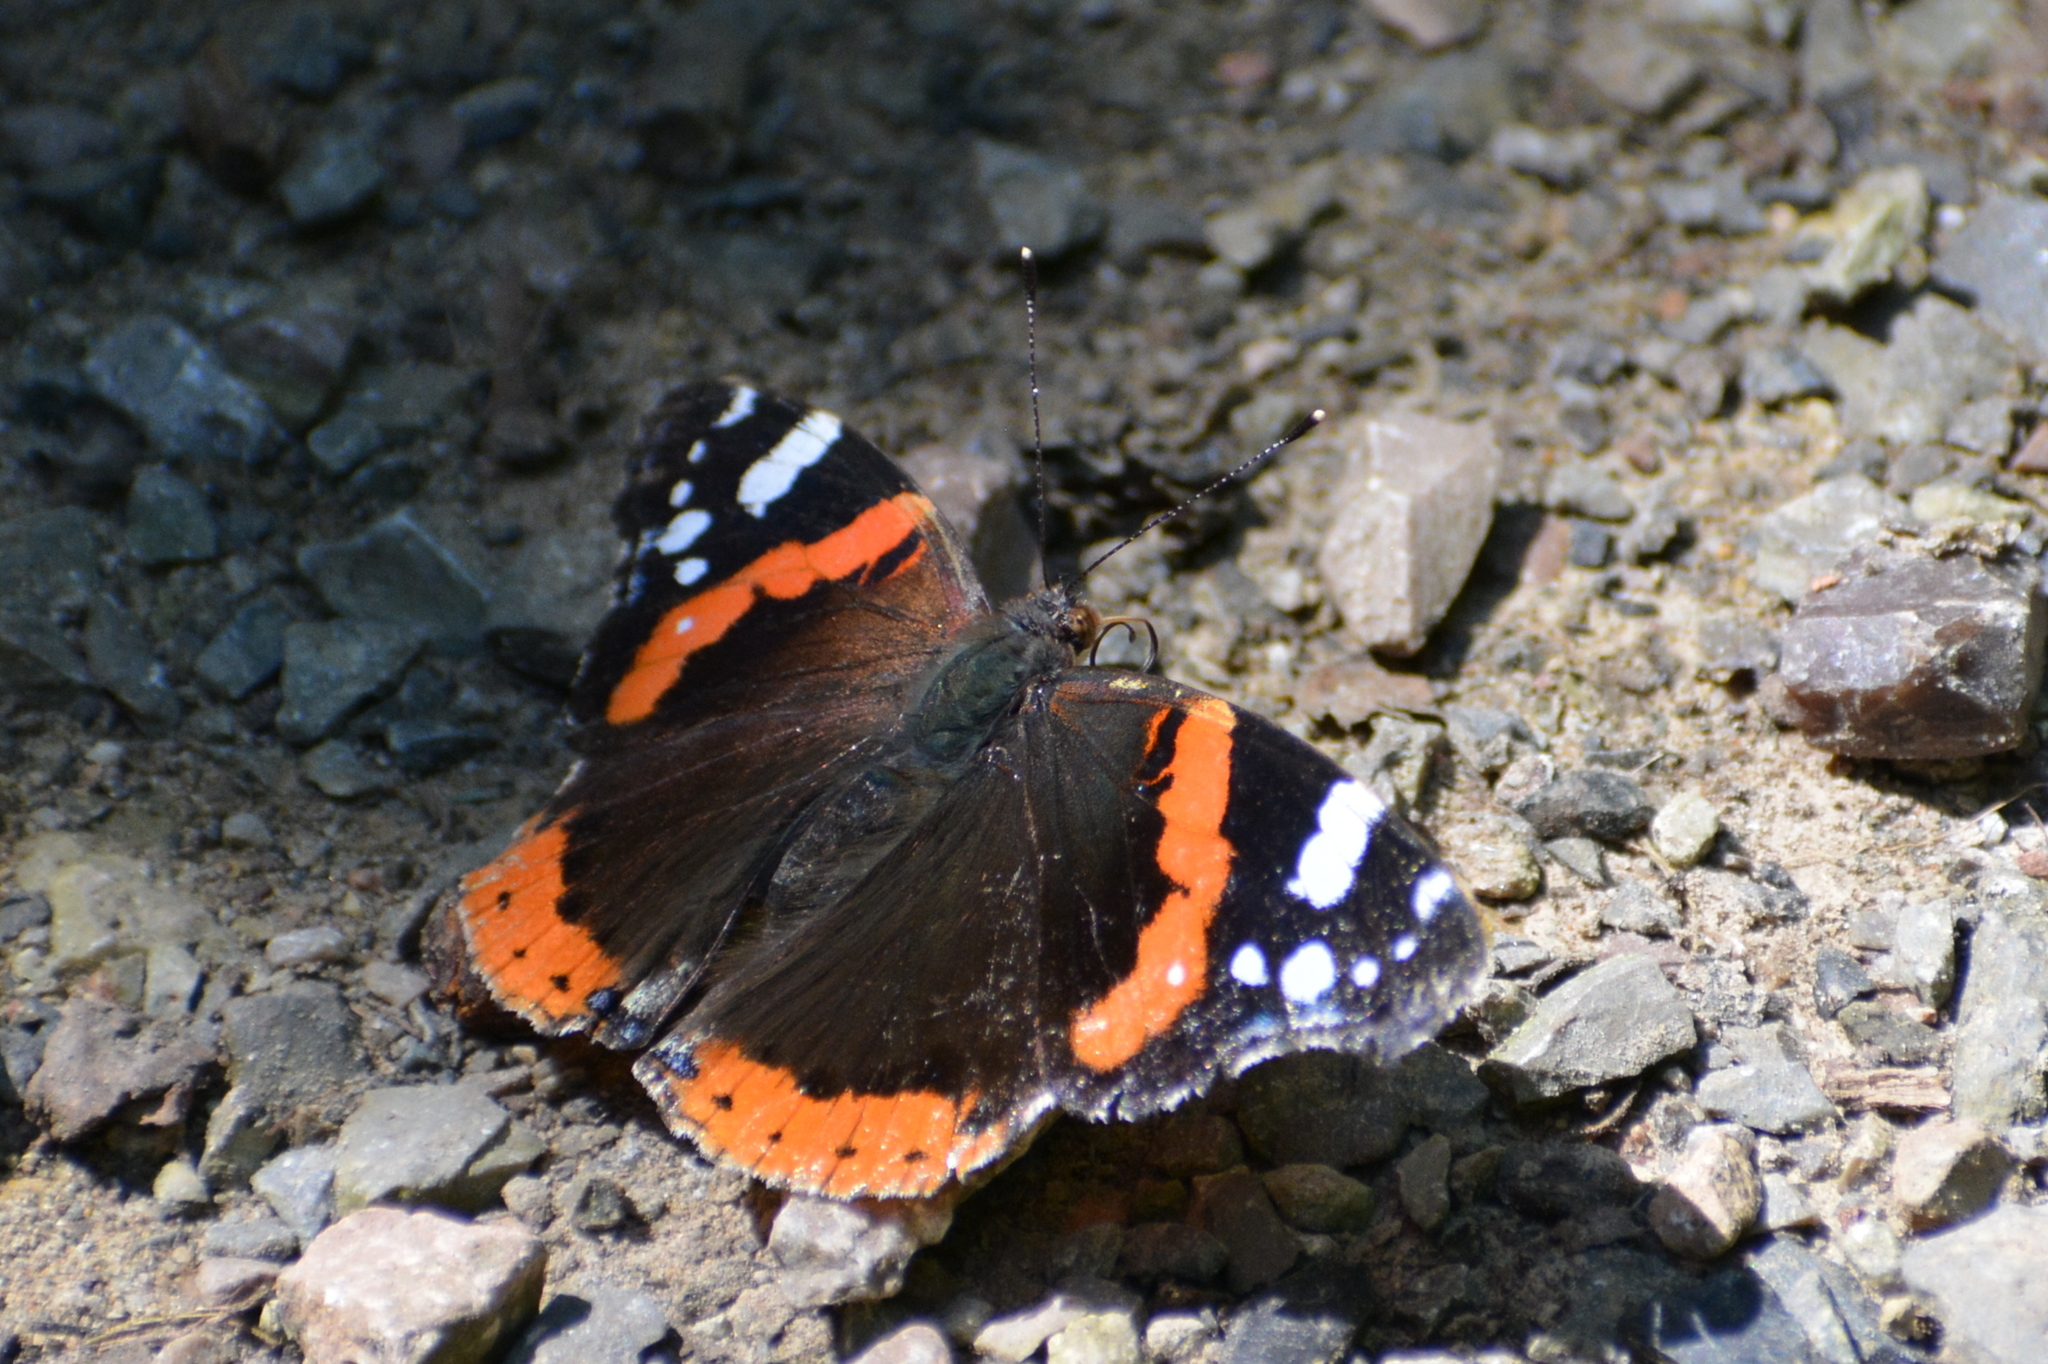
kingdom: Animalia
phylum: Arthropoda
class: Insecta
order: Lepidoptera
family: Nymphalidae
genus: Vanessa
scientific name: Vanessa atalanta
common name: Red admiral
